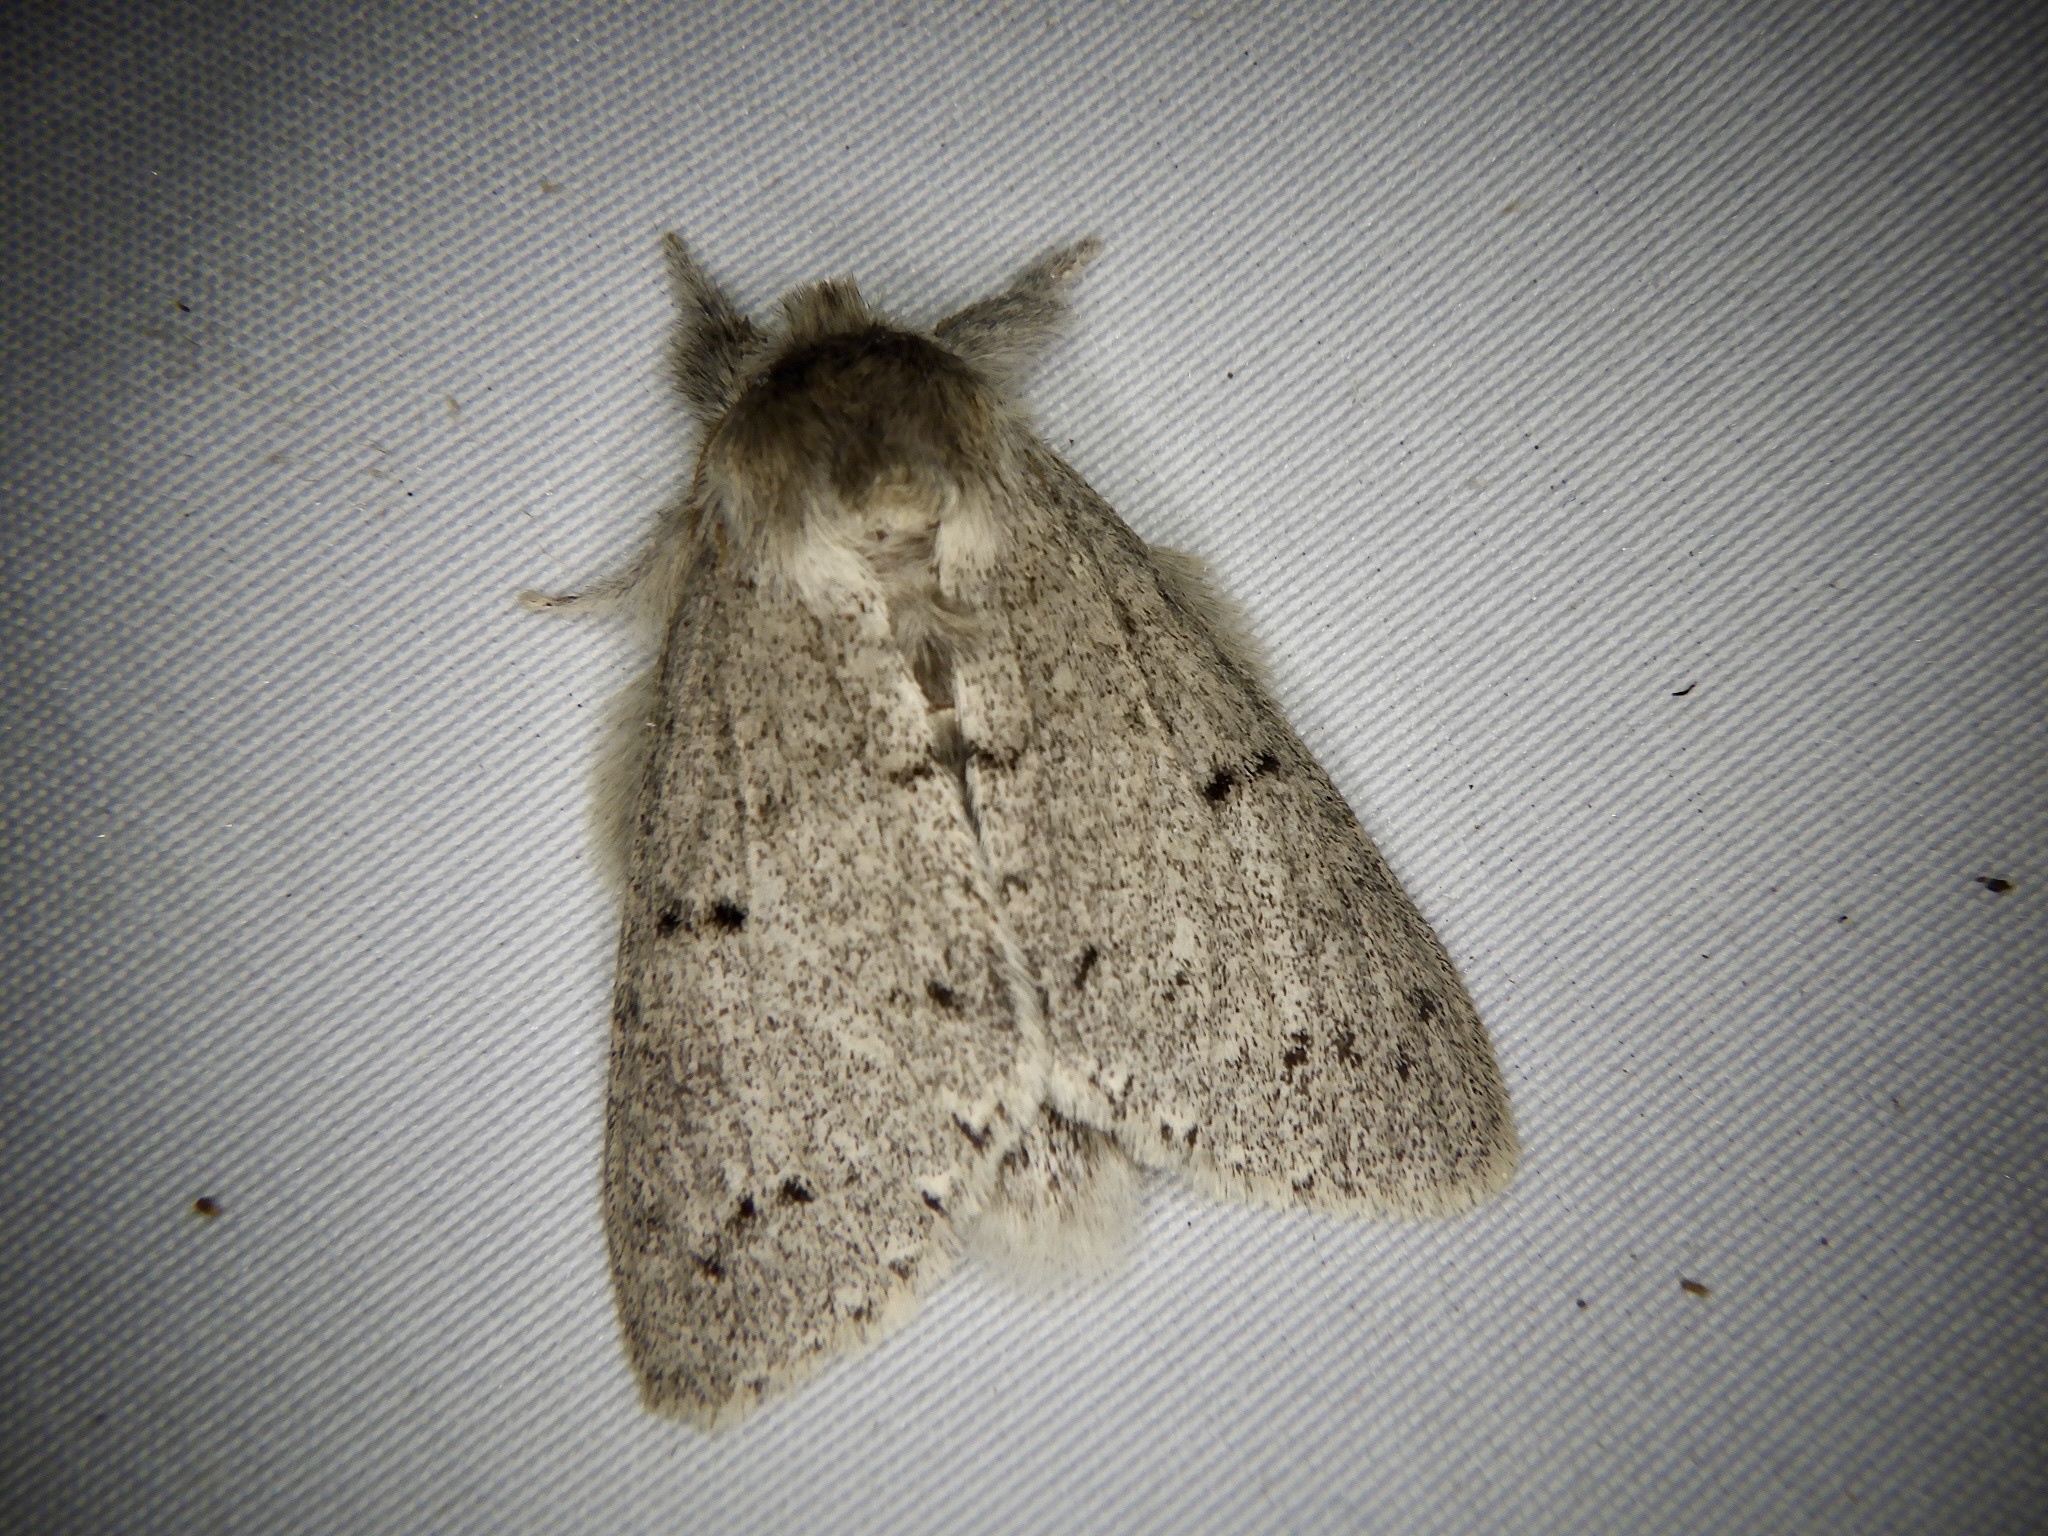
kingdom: Animalia
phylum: Arthropoda
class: Insecta
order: Lepidoptera
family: Notodontidae
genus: Cnethodonta
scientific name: Cnethodonta grisescens
